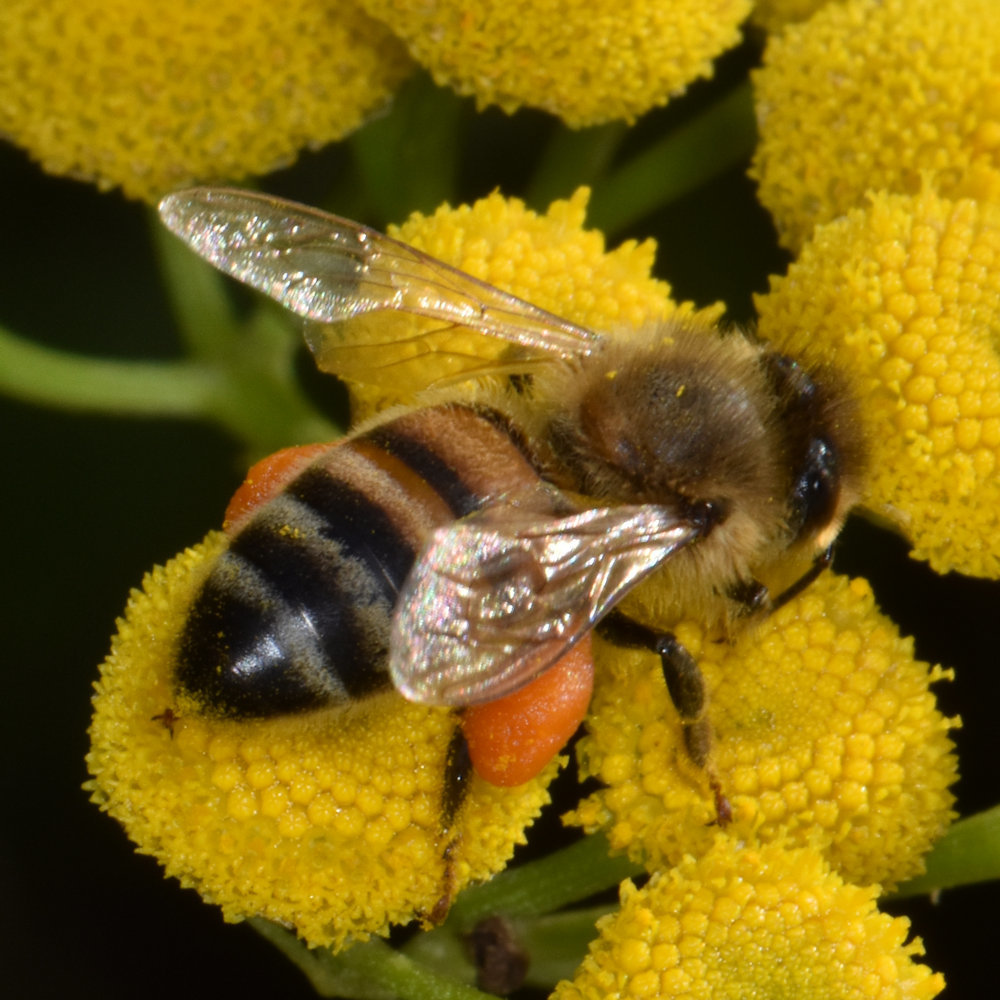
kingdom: Animalia
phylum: Arthropoda
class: Insecta
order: Hymenoptera
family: Apidae
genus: Apis
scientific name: Apis mellifera
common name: Honey bee
